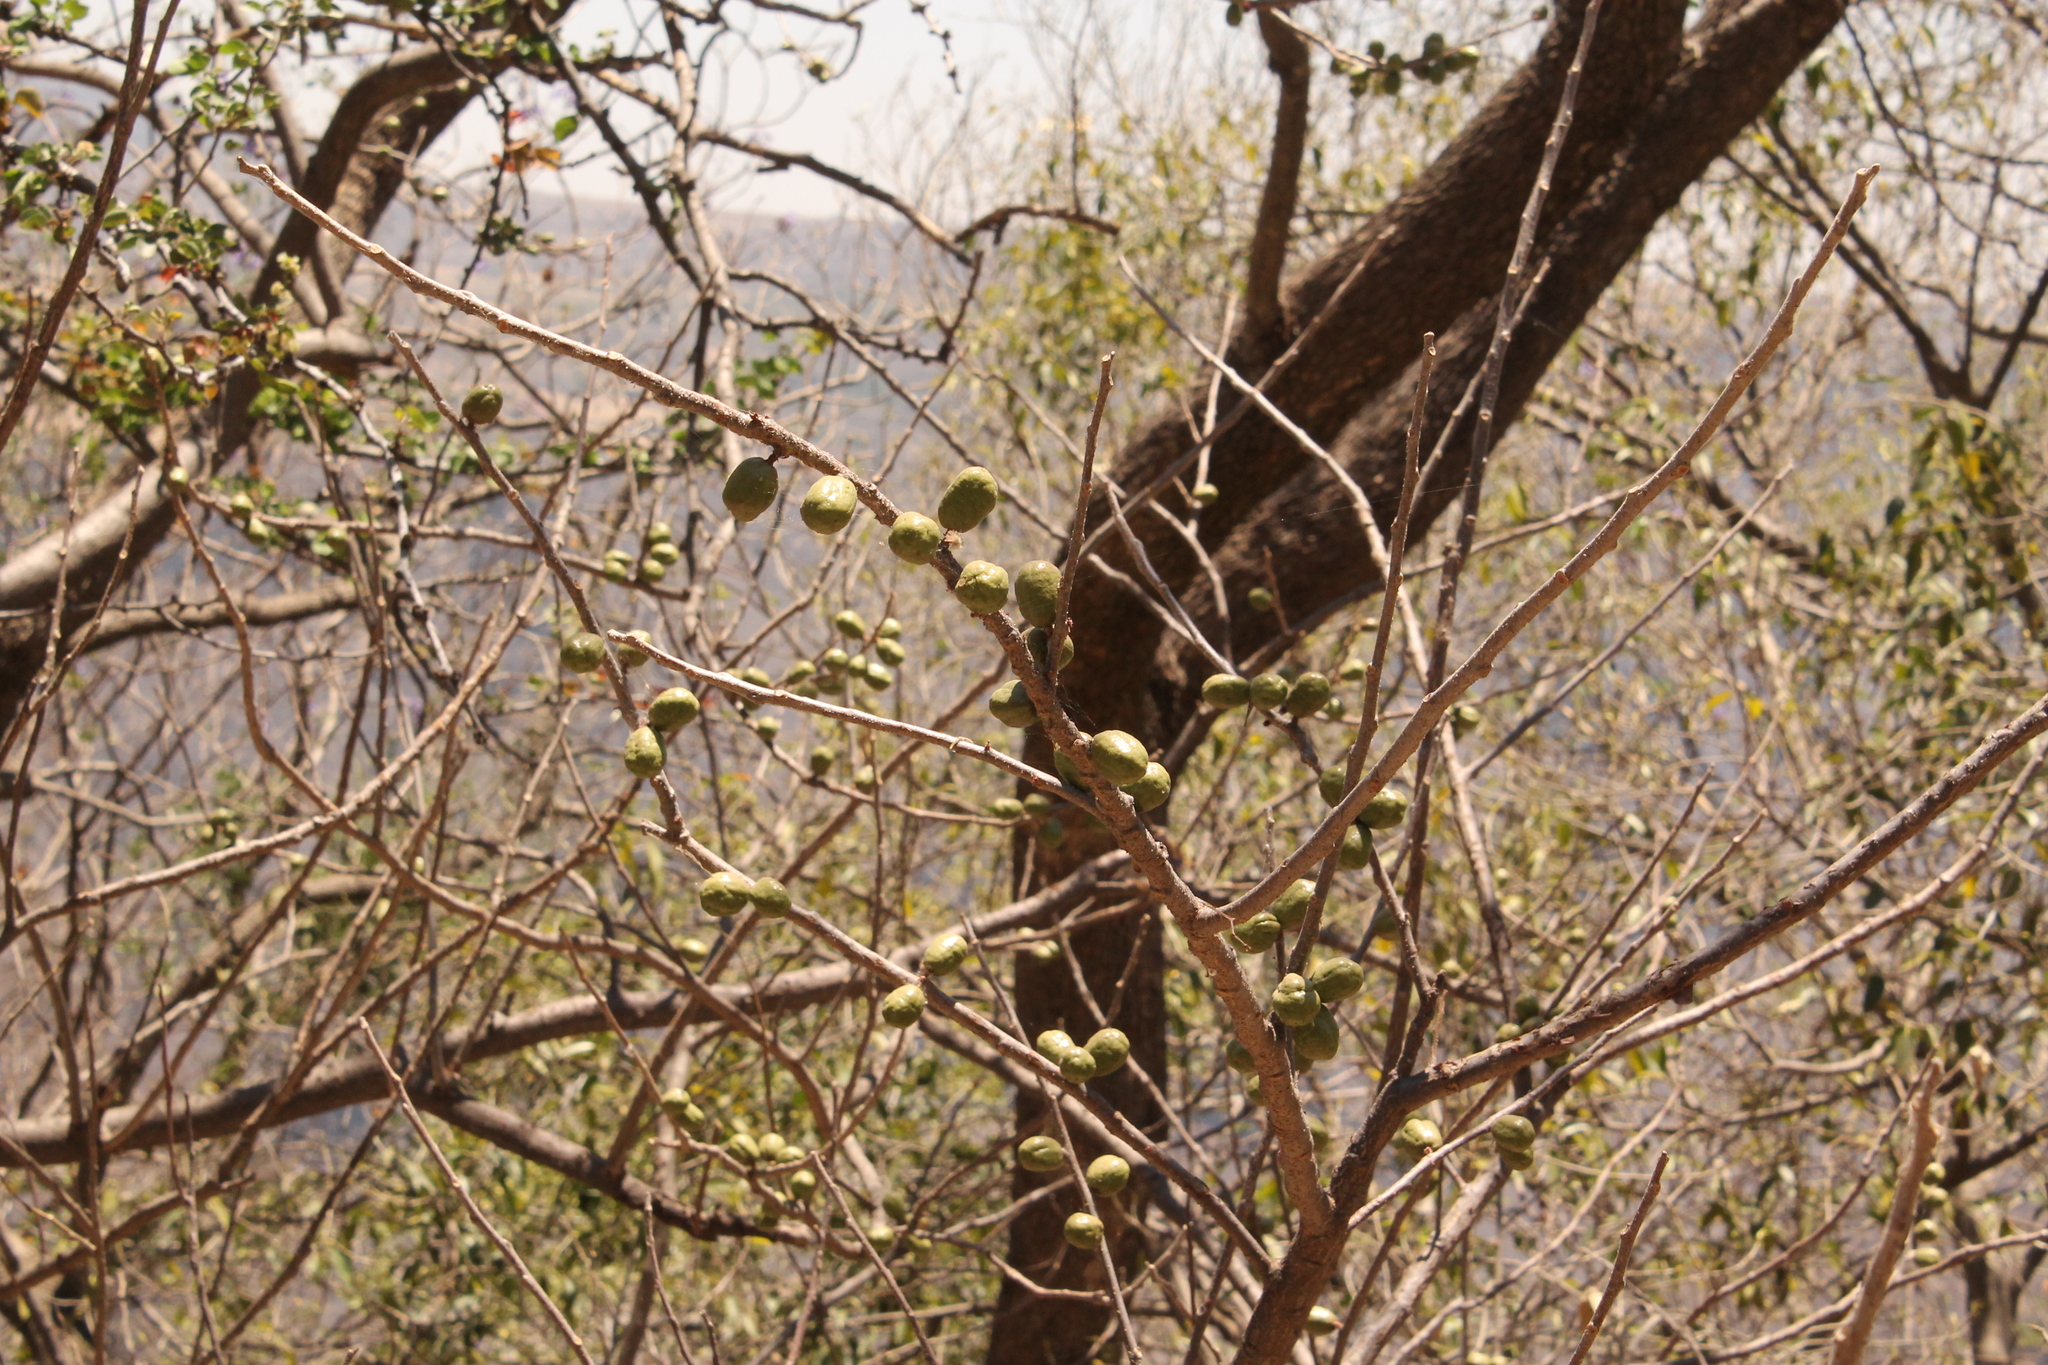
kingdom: Plantae
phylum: Tracheophyta
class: Magnoliopsida
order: Sapindales
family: Anacardiaceae
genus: Spondias
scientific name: Spondias purpurea
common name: Purple mombin
